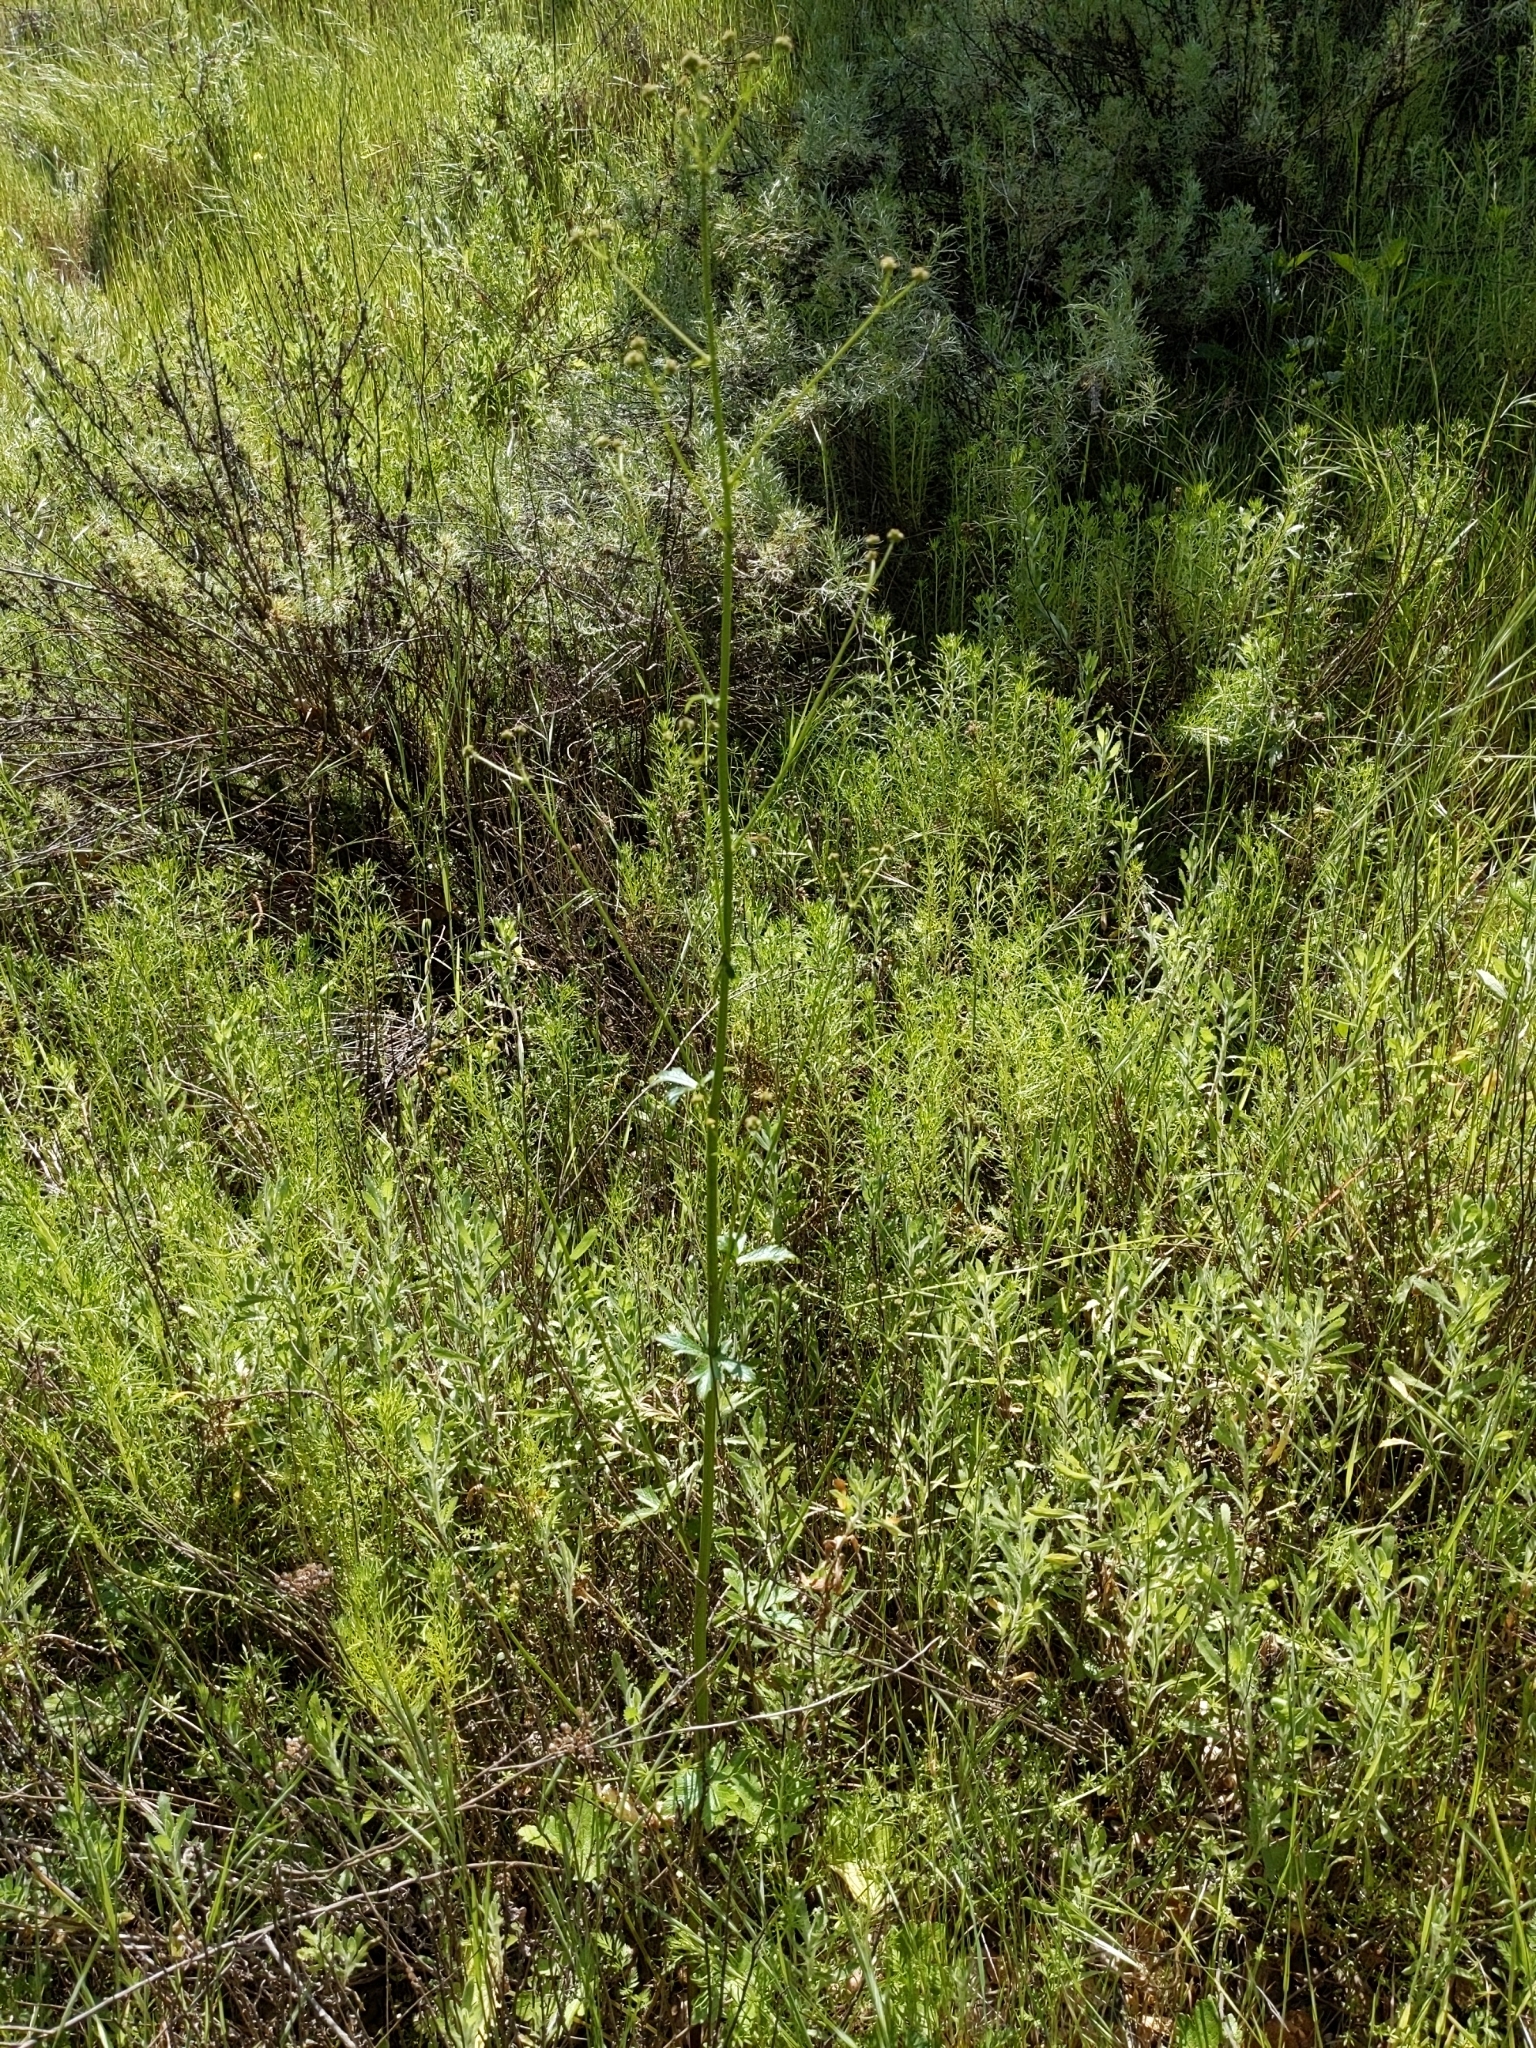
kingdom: Plantae
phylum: Tracheophyta
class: Magnoliopsida
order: Apiales
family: Apiaceae
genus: Sanicula
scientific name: Sanicula crassicaulis
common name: Western snakeroot
